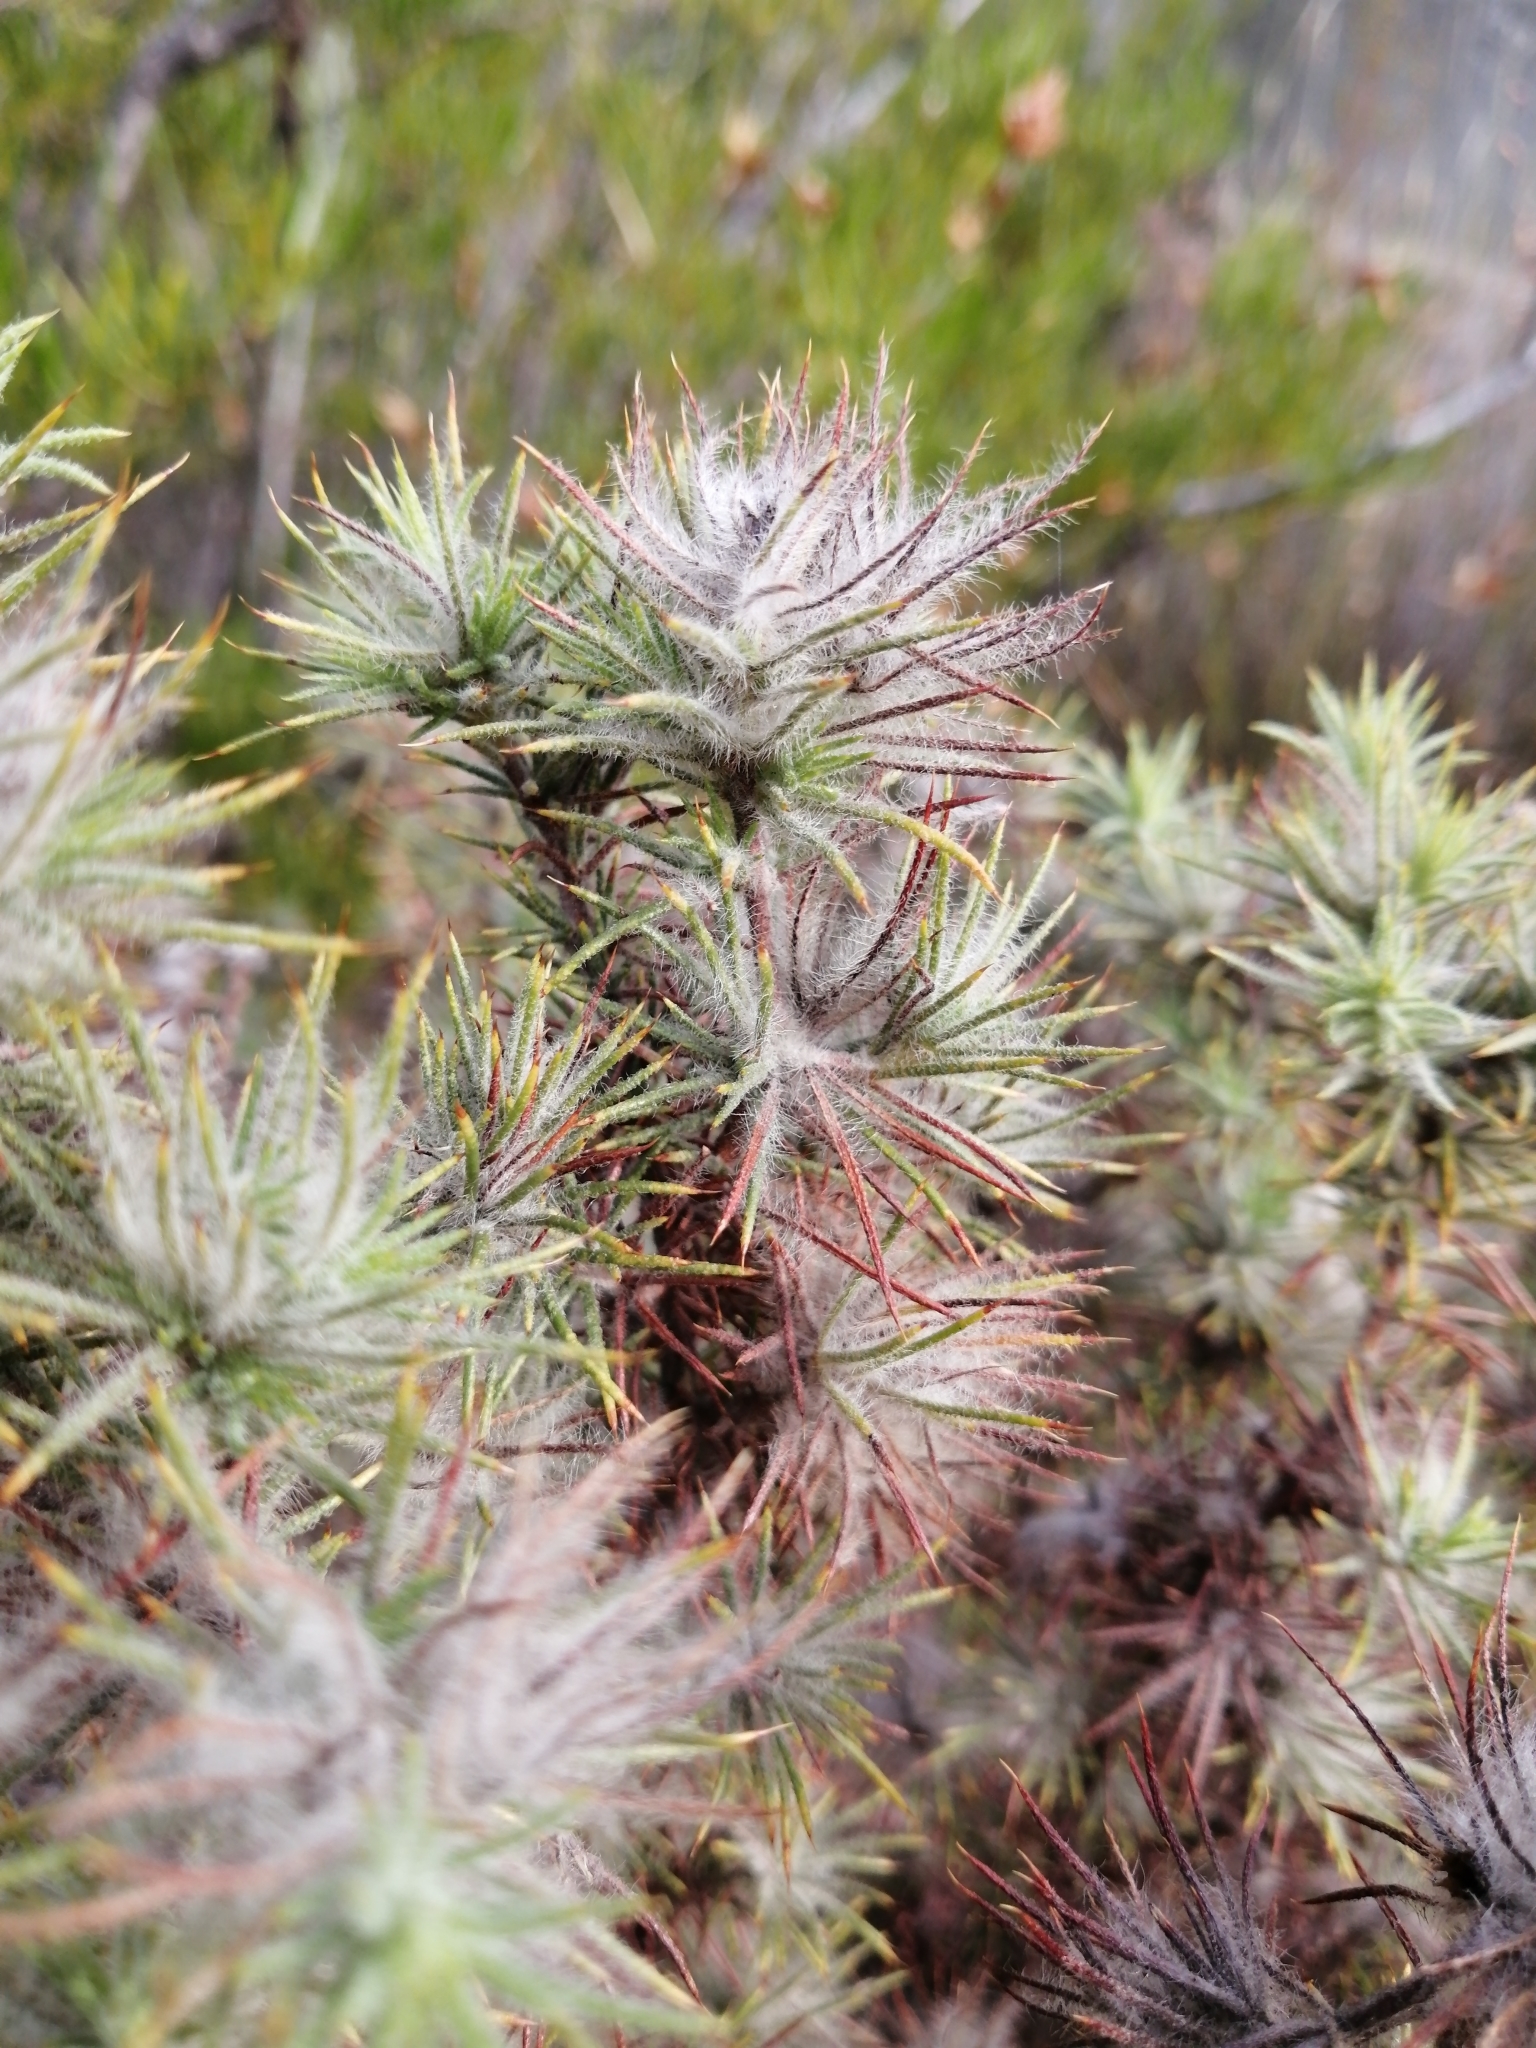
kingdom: Plantae
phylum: Tracheophyta
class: Magnoliopsida
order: Fabales
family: Fabaceae
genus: Aspalathus
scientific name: Aspalathus rubiginosa
